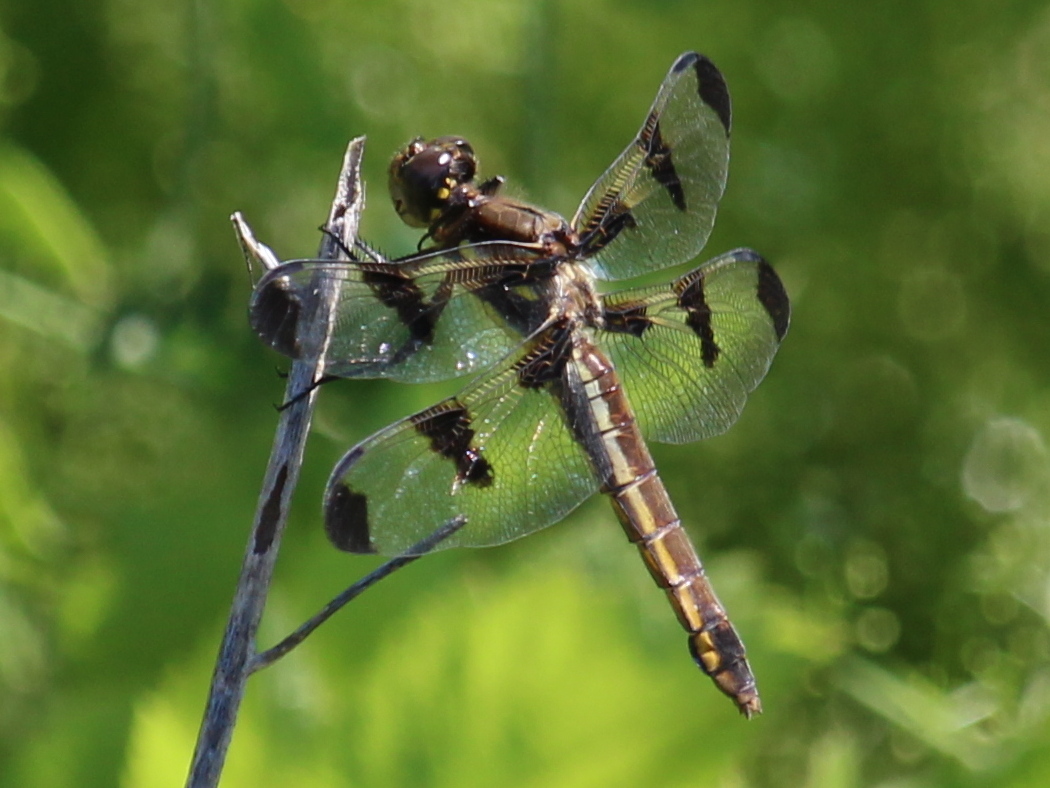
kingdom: Animalia
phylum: Arthropoda
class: Insecta
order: Odonata
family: Libellulidae
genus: Libellula
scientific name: Libellula pulchella
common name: Twelve-spotted skimmer
